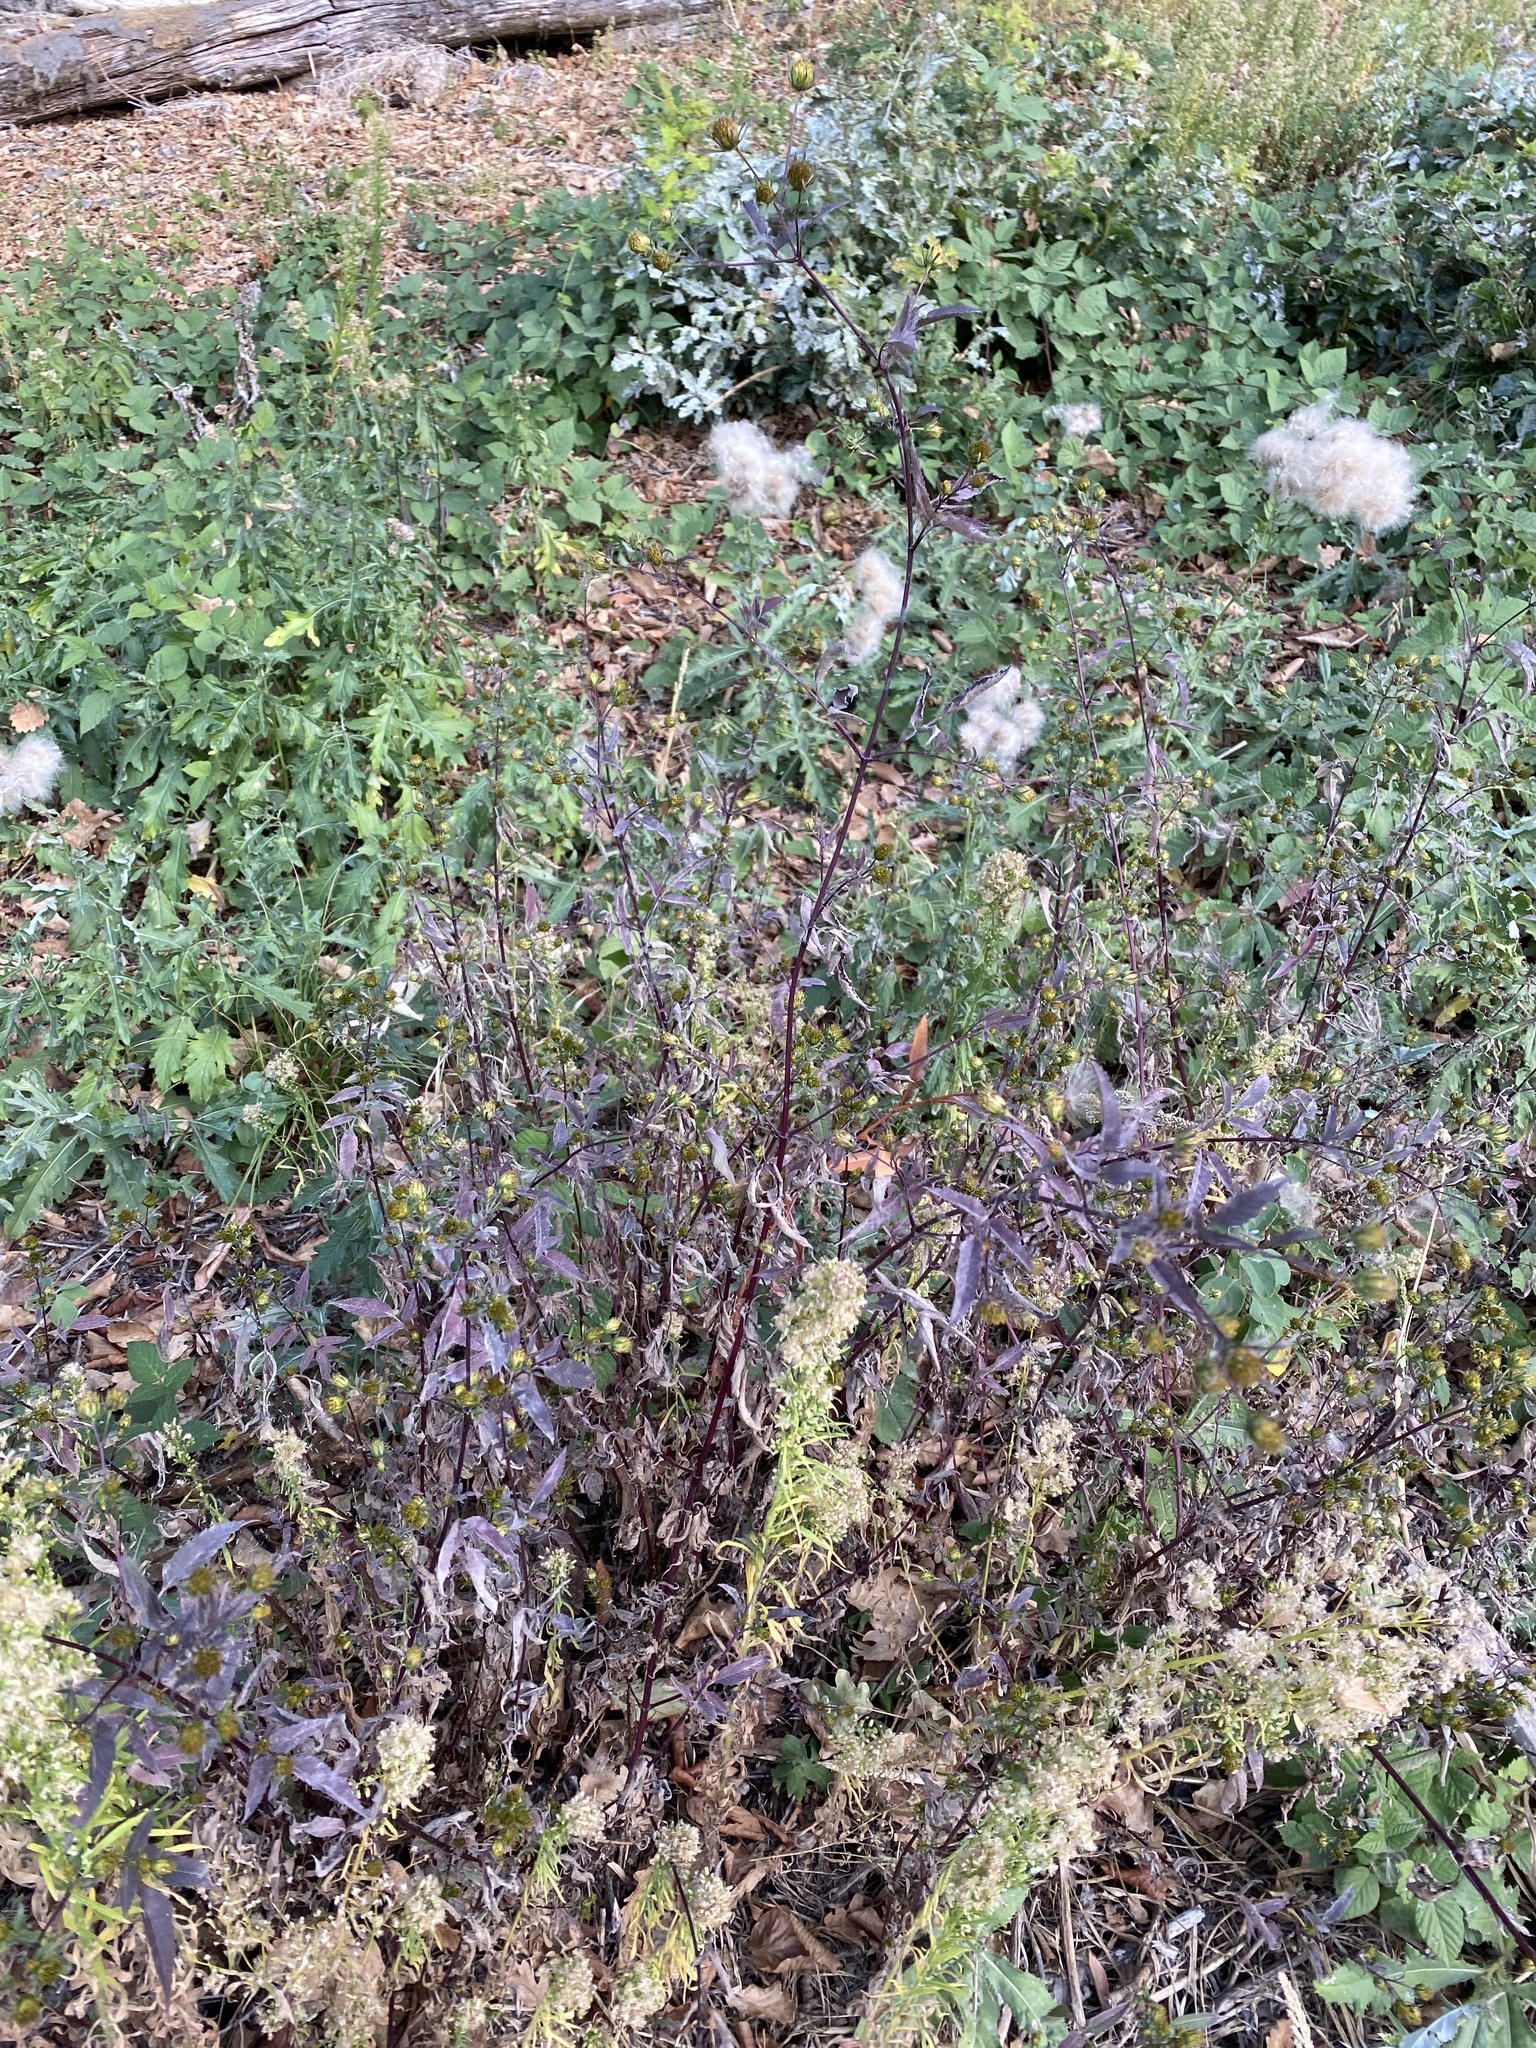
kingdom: Plantae
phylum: Tracheophyta
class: Magnoliopsida
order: Asterales
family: Asteraceae
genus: Bidens
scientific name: Bidens frondosa
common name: Beggarticks
